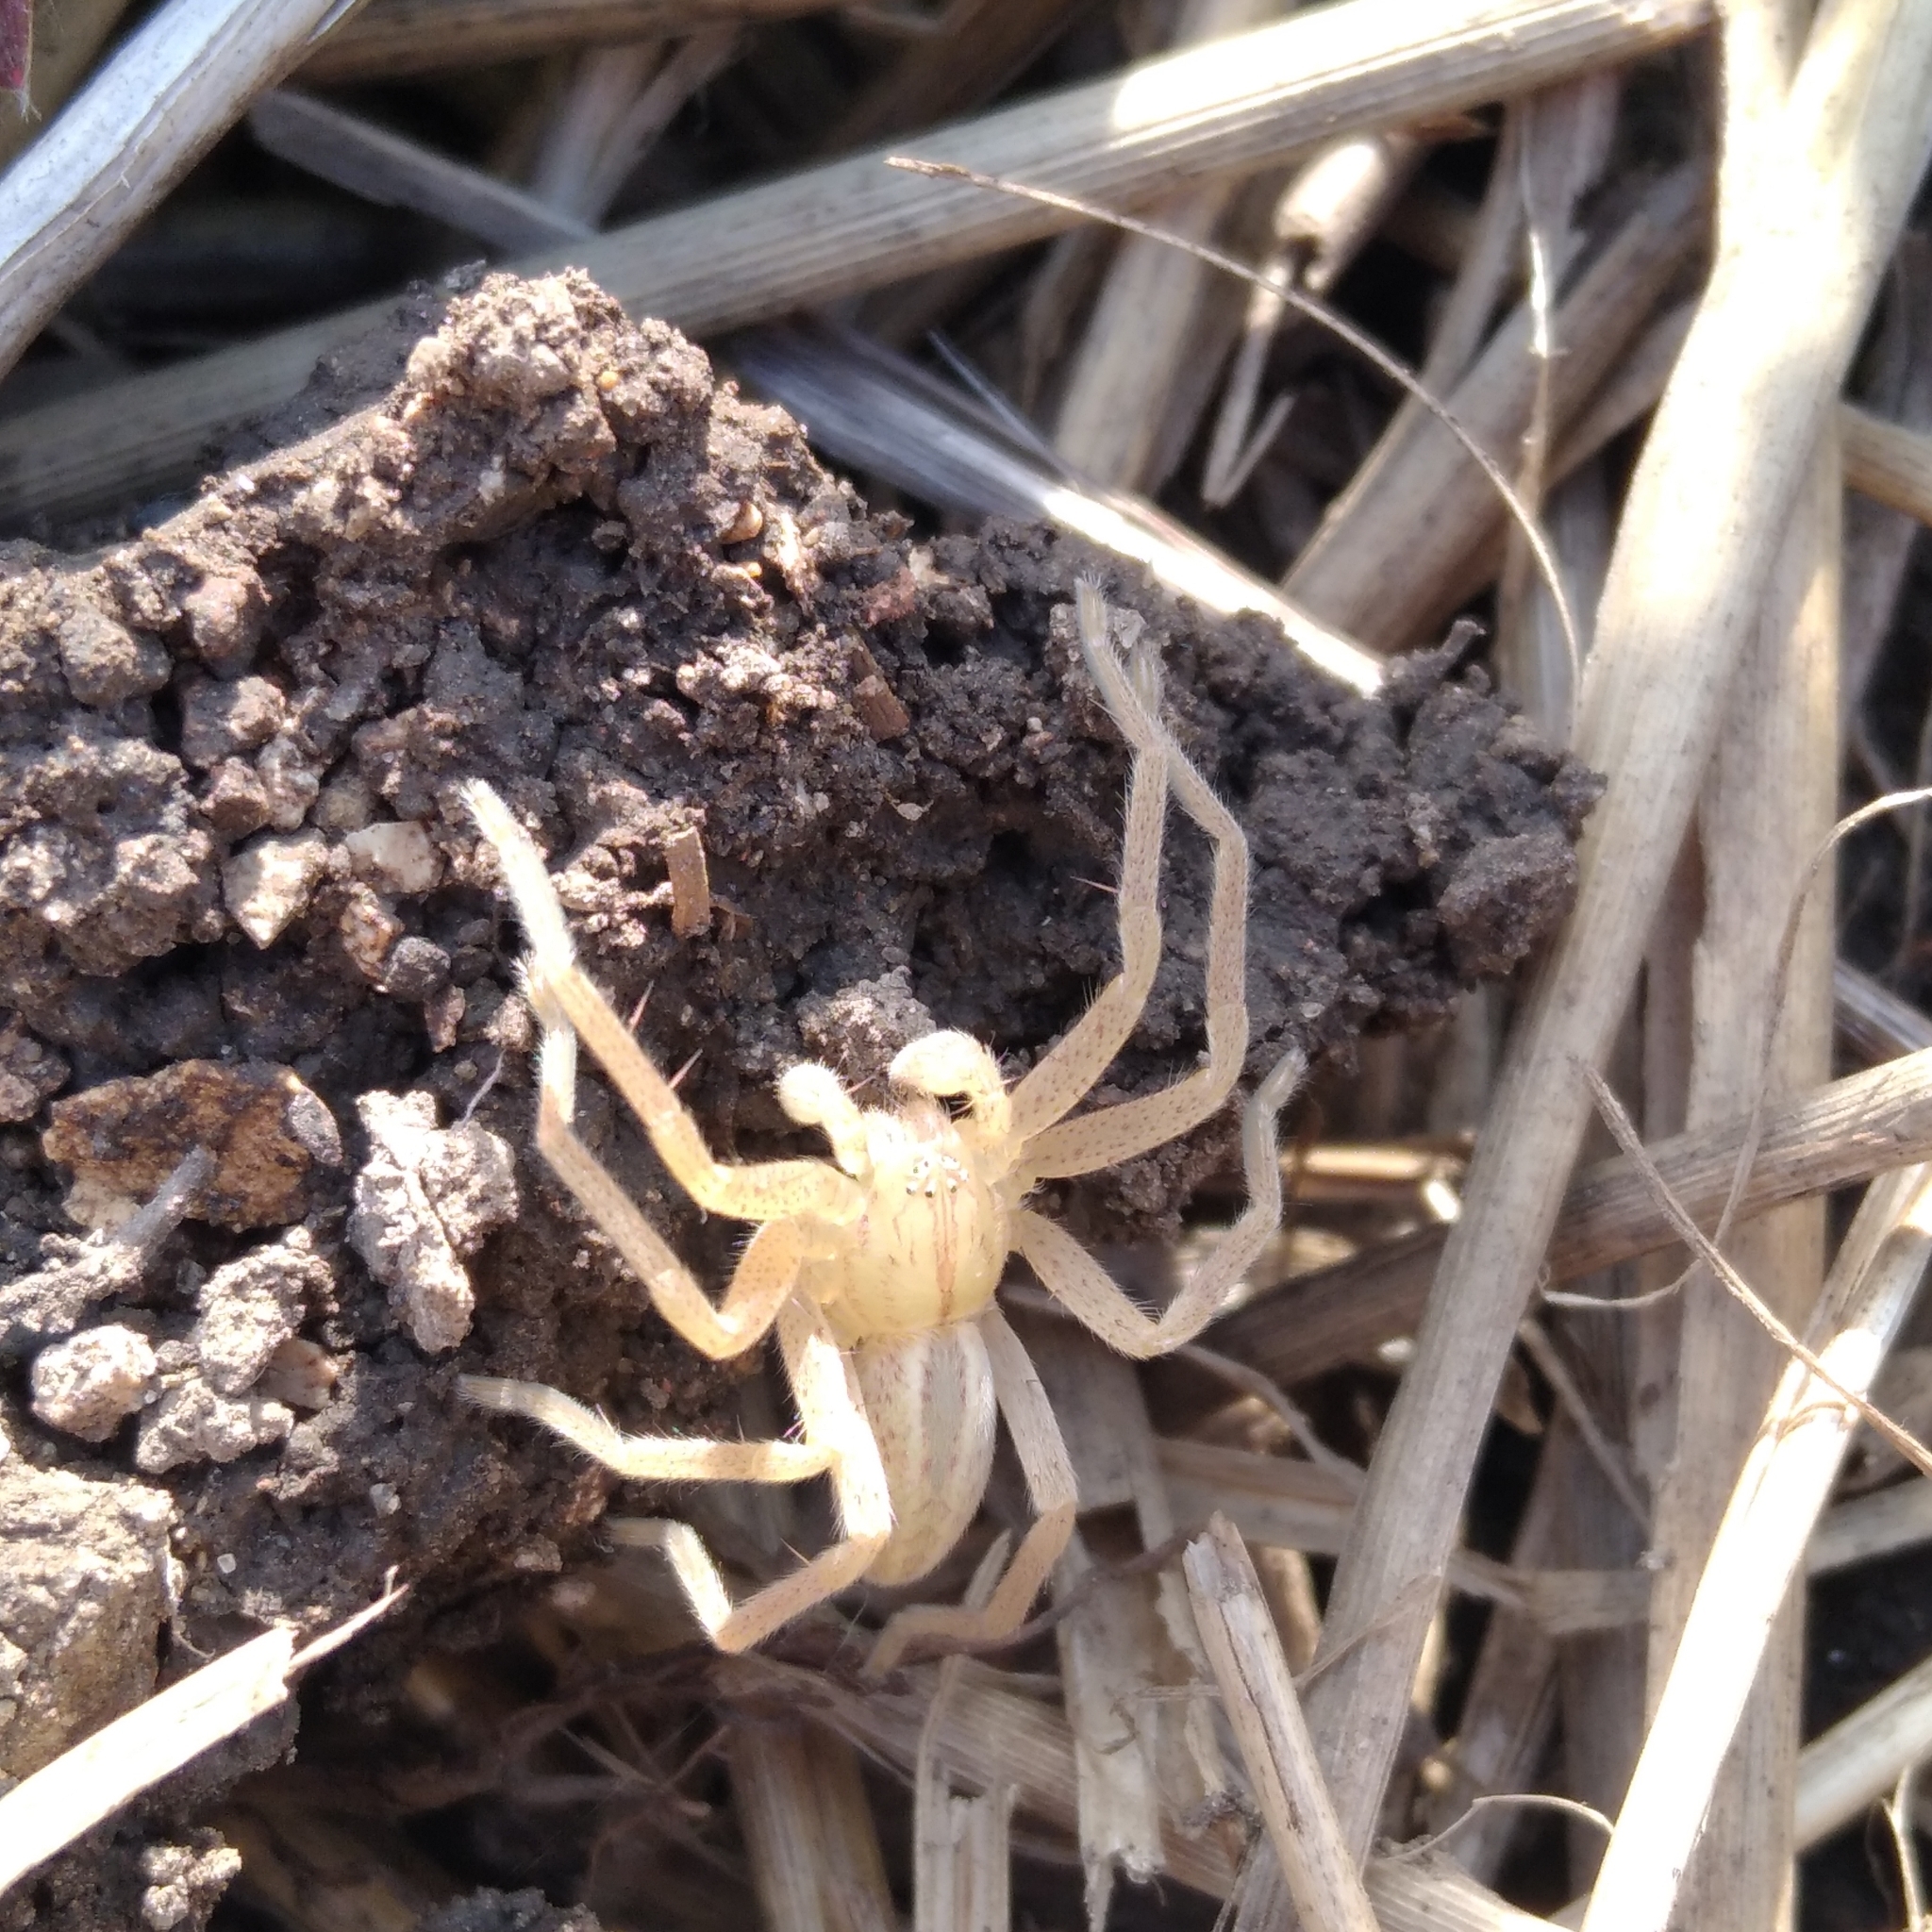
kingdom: Animalia
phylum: Arthropoda
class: Arachnida
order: Araneae
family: Sparassidae
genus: Micrommata
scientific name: Micrommata virescens
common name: Green spider
